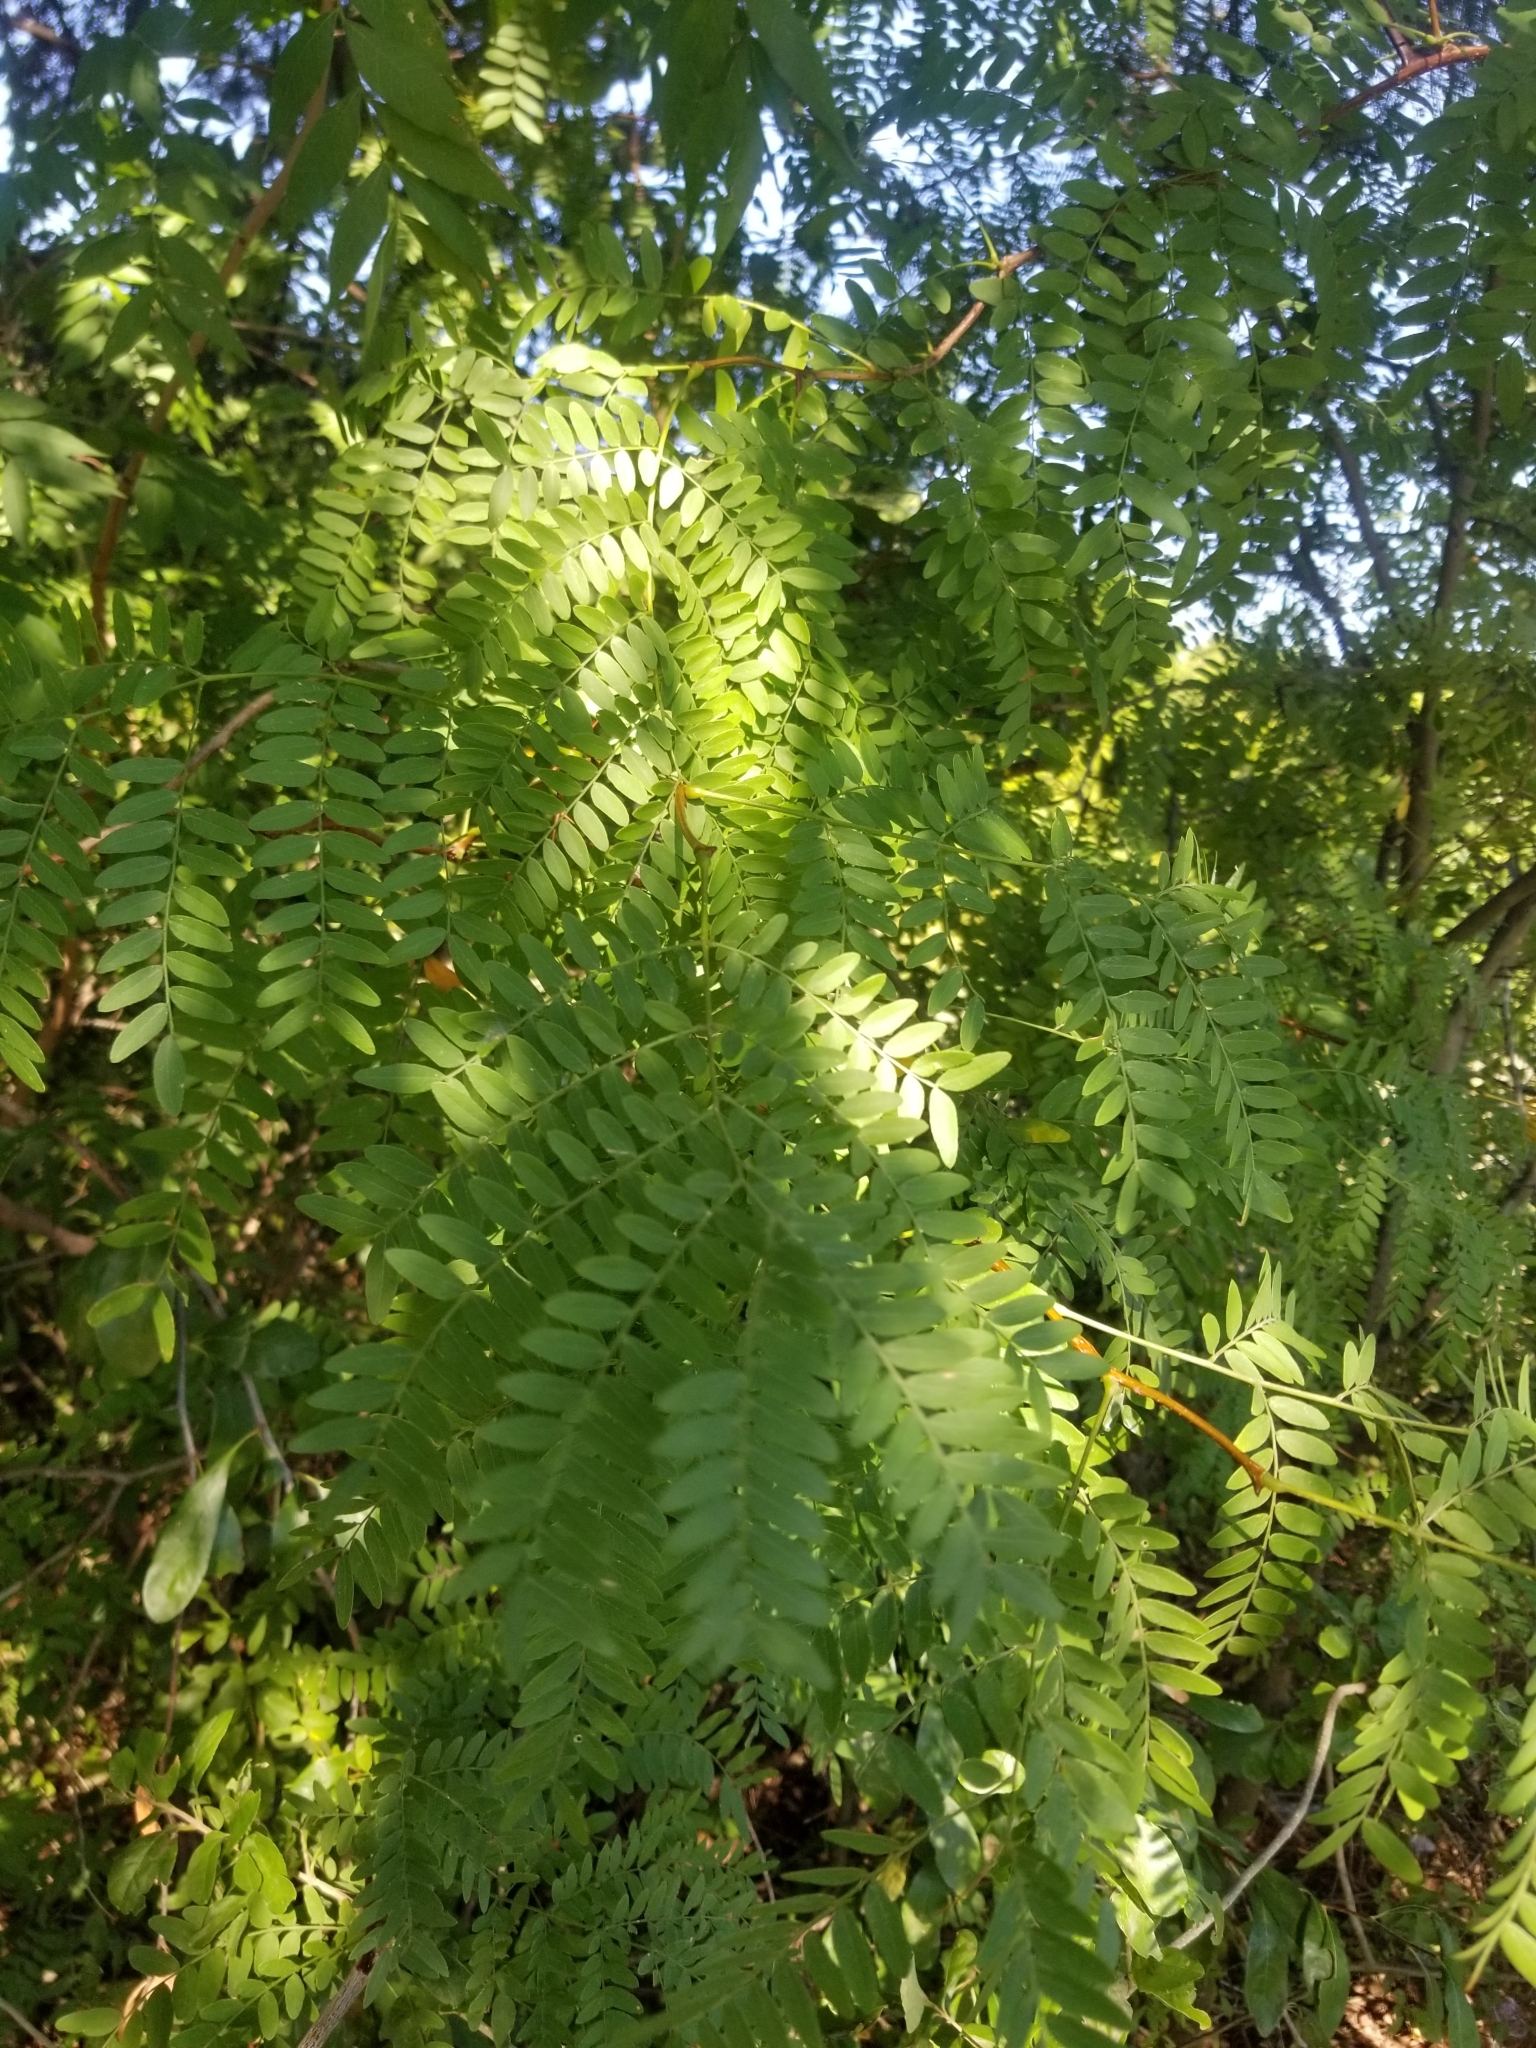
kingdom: Plantae
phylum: Tracheophyta
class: Magnoliopsida
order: Fabales
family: Fabaceae
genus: Gleditsia
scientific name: Gleditsia triacanthos
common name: Common honeylocust
